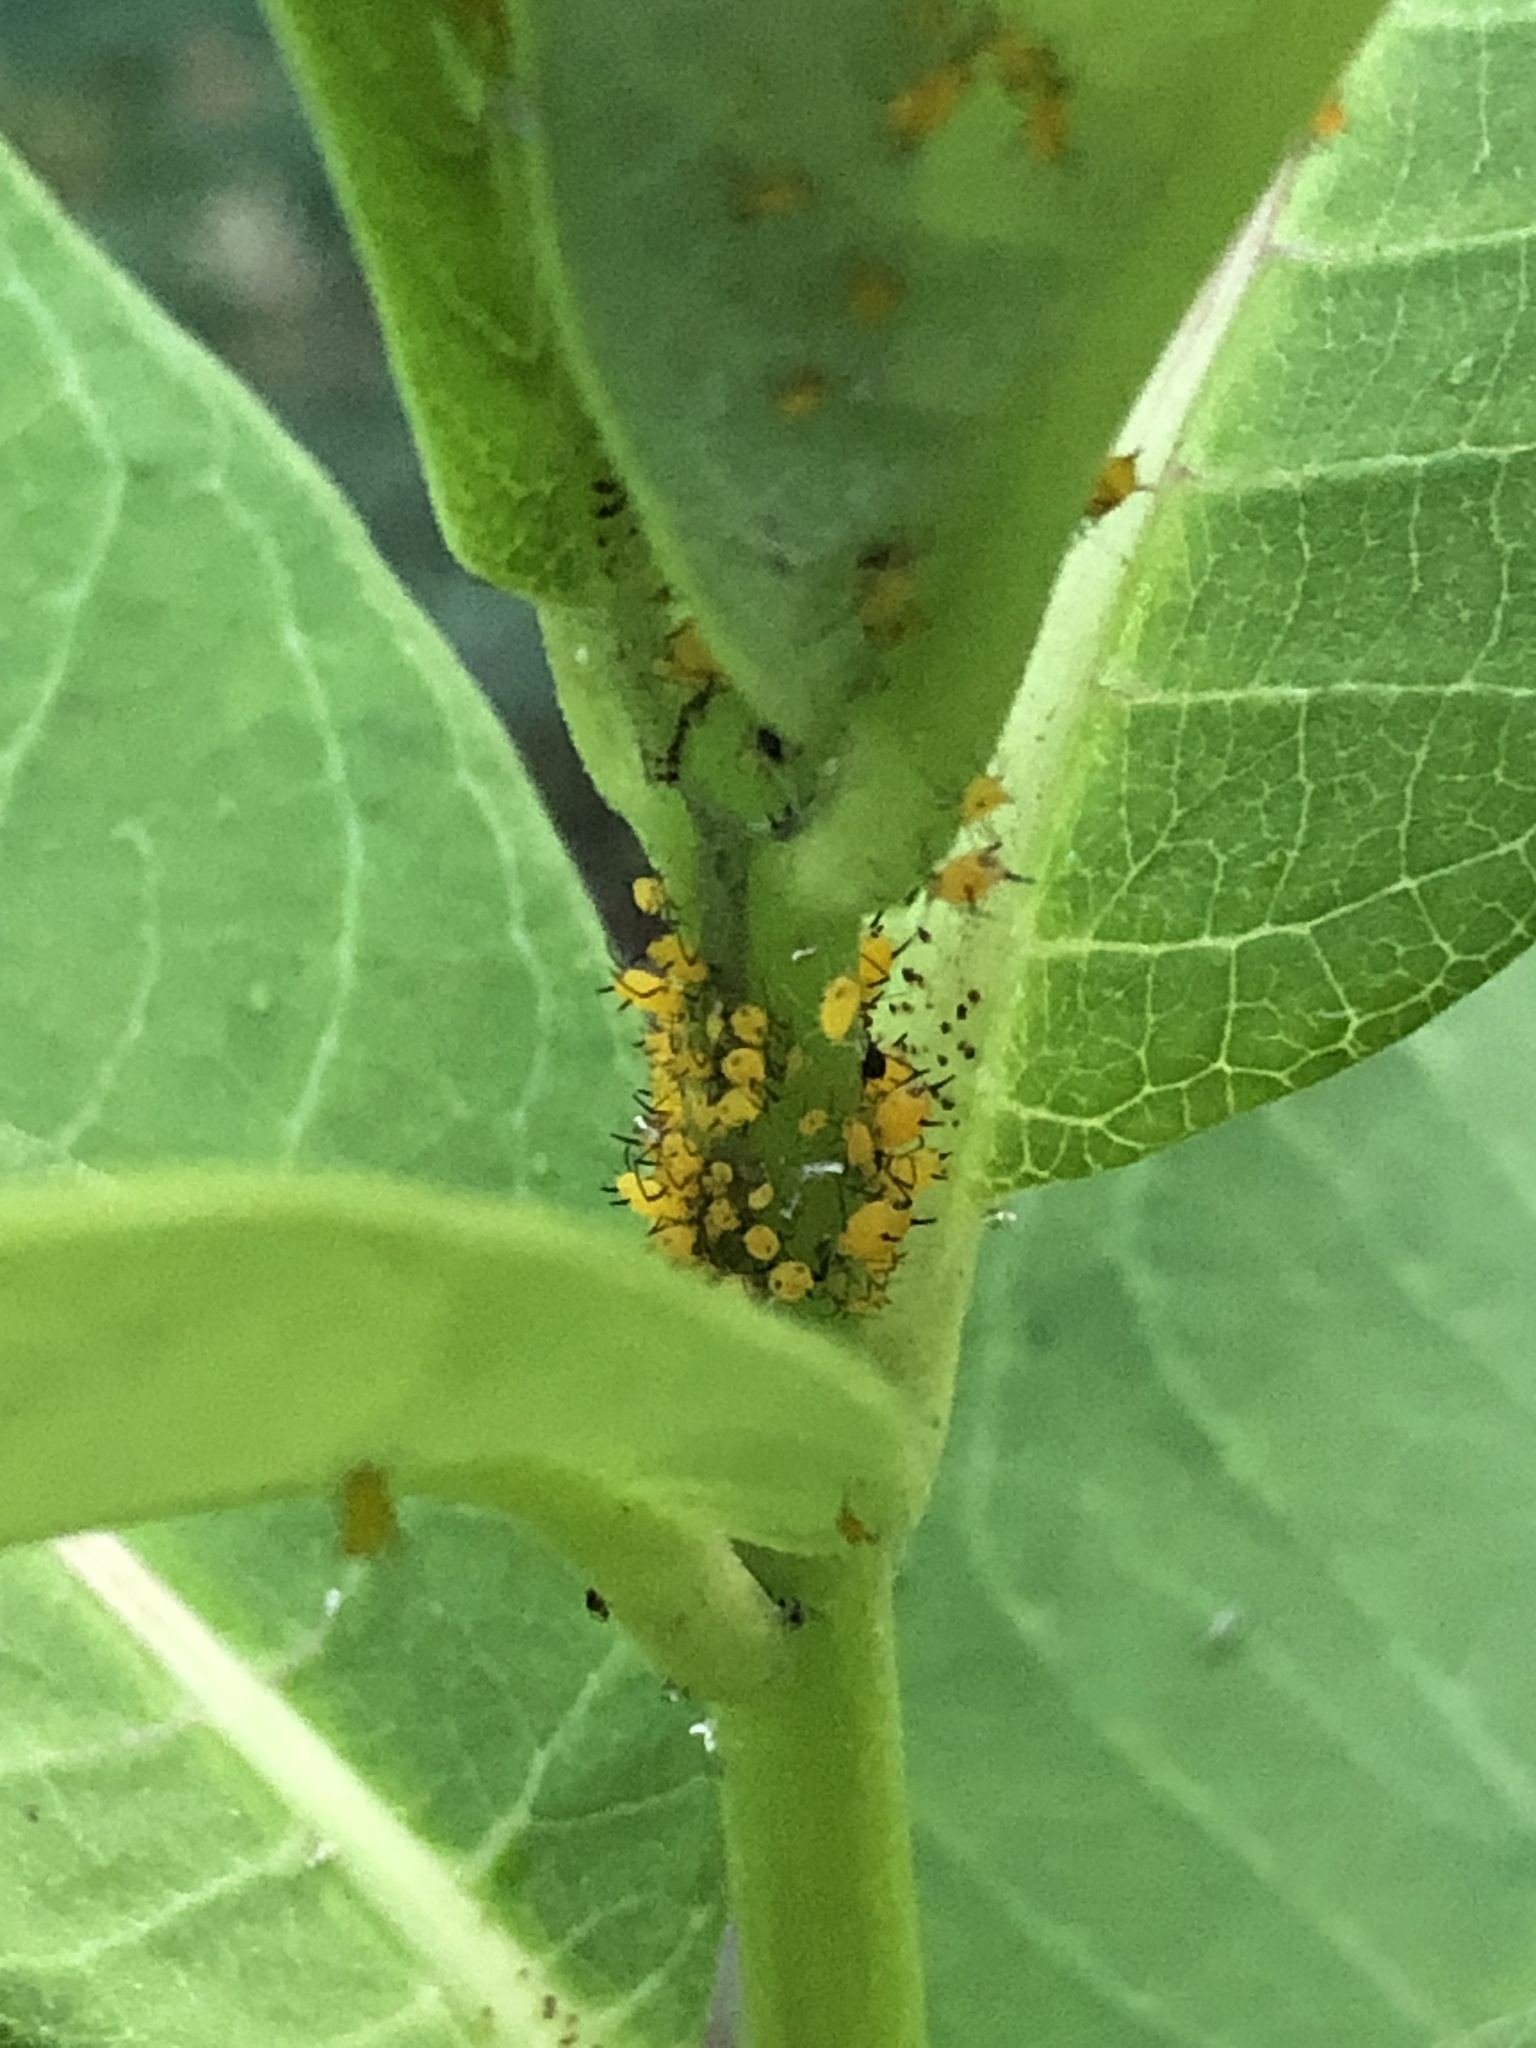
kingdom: Animalia
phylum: Arthropoda
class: Insecta
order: Hemiptera
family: Aphididae
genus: Aphis
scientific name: Aphis nerii
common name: Oleander aphid
